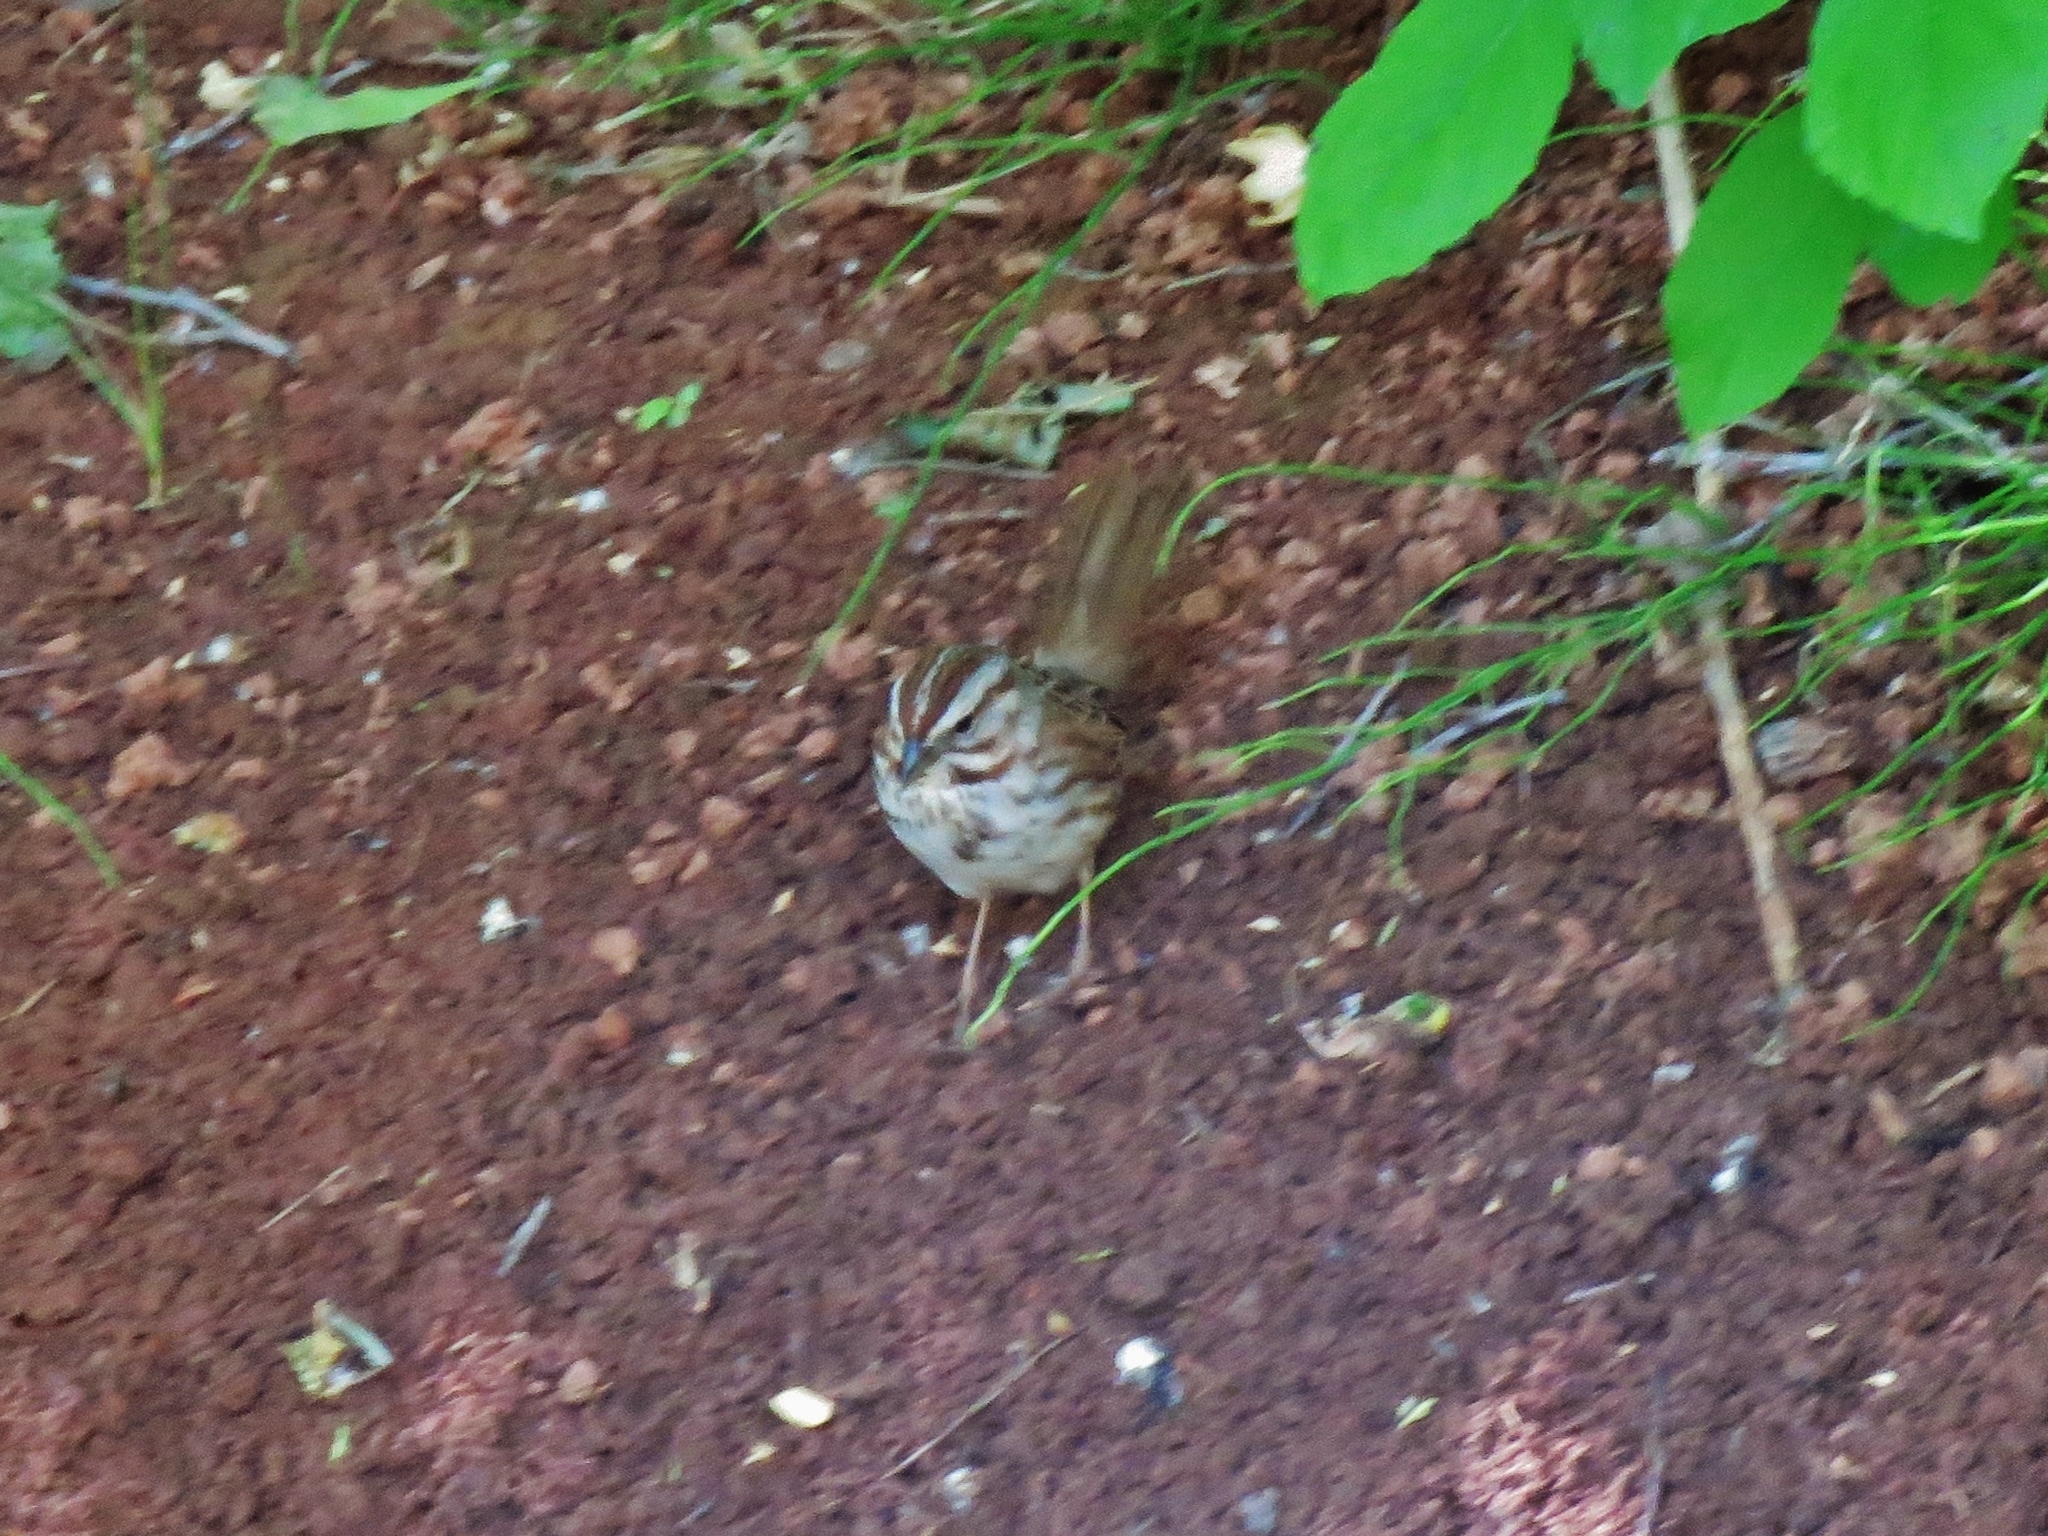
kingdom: Animalia
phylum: Chordata
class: Aves
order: Passeriformes
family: Passerellidae
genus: Melospiza
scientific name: Melospiza melodia
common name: Song sparrow
